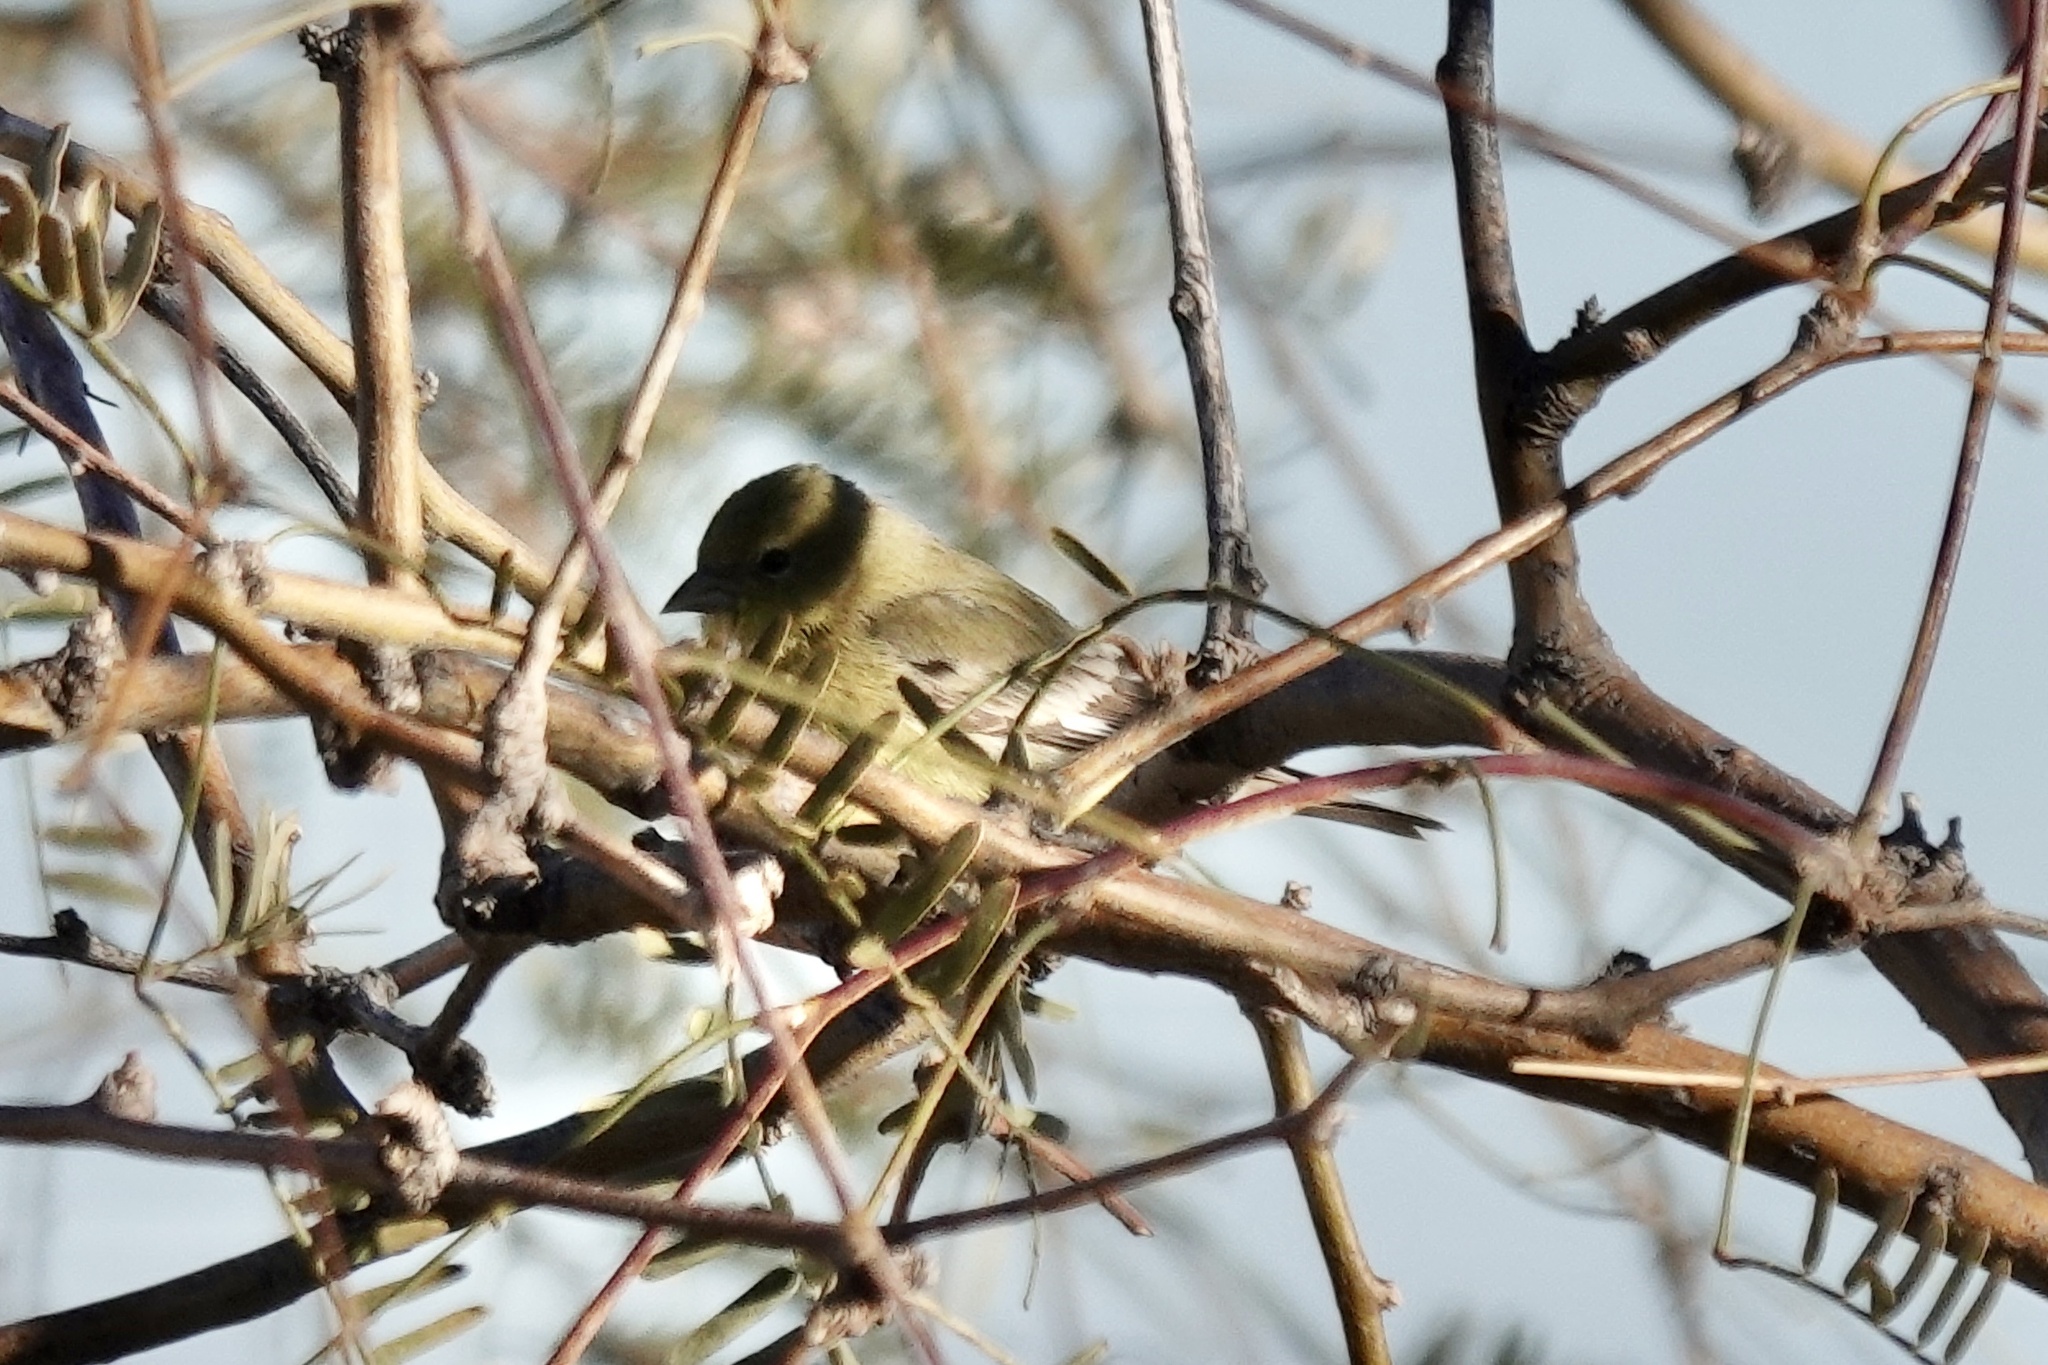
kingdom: Animalia
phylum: Chordata
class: Aves
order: Passeriformes
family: Fringillidae
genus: Spinus
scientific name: Spinus psaltria
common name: Lesser goldfinch
